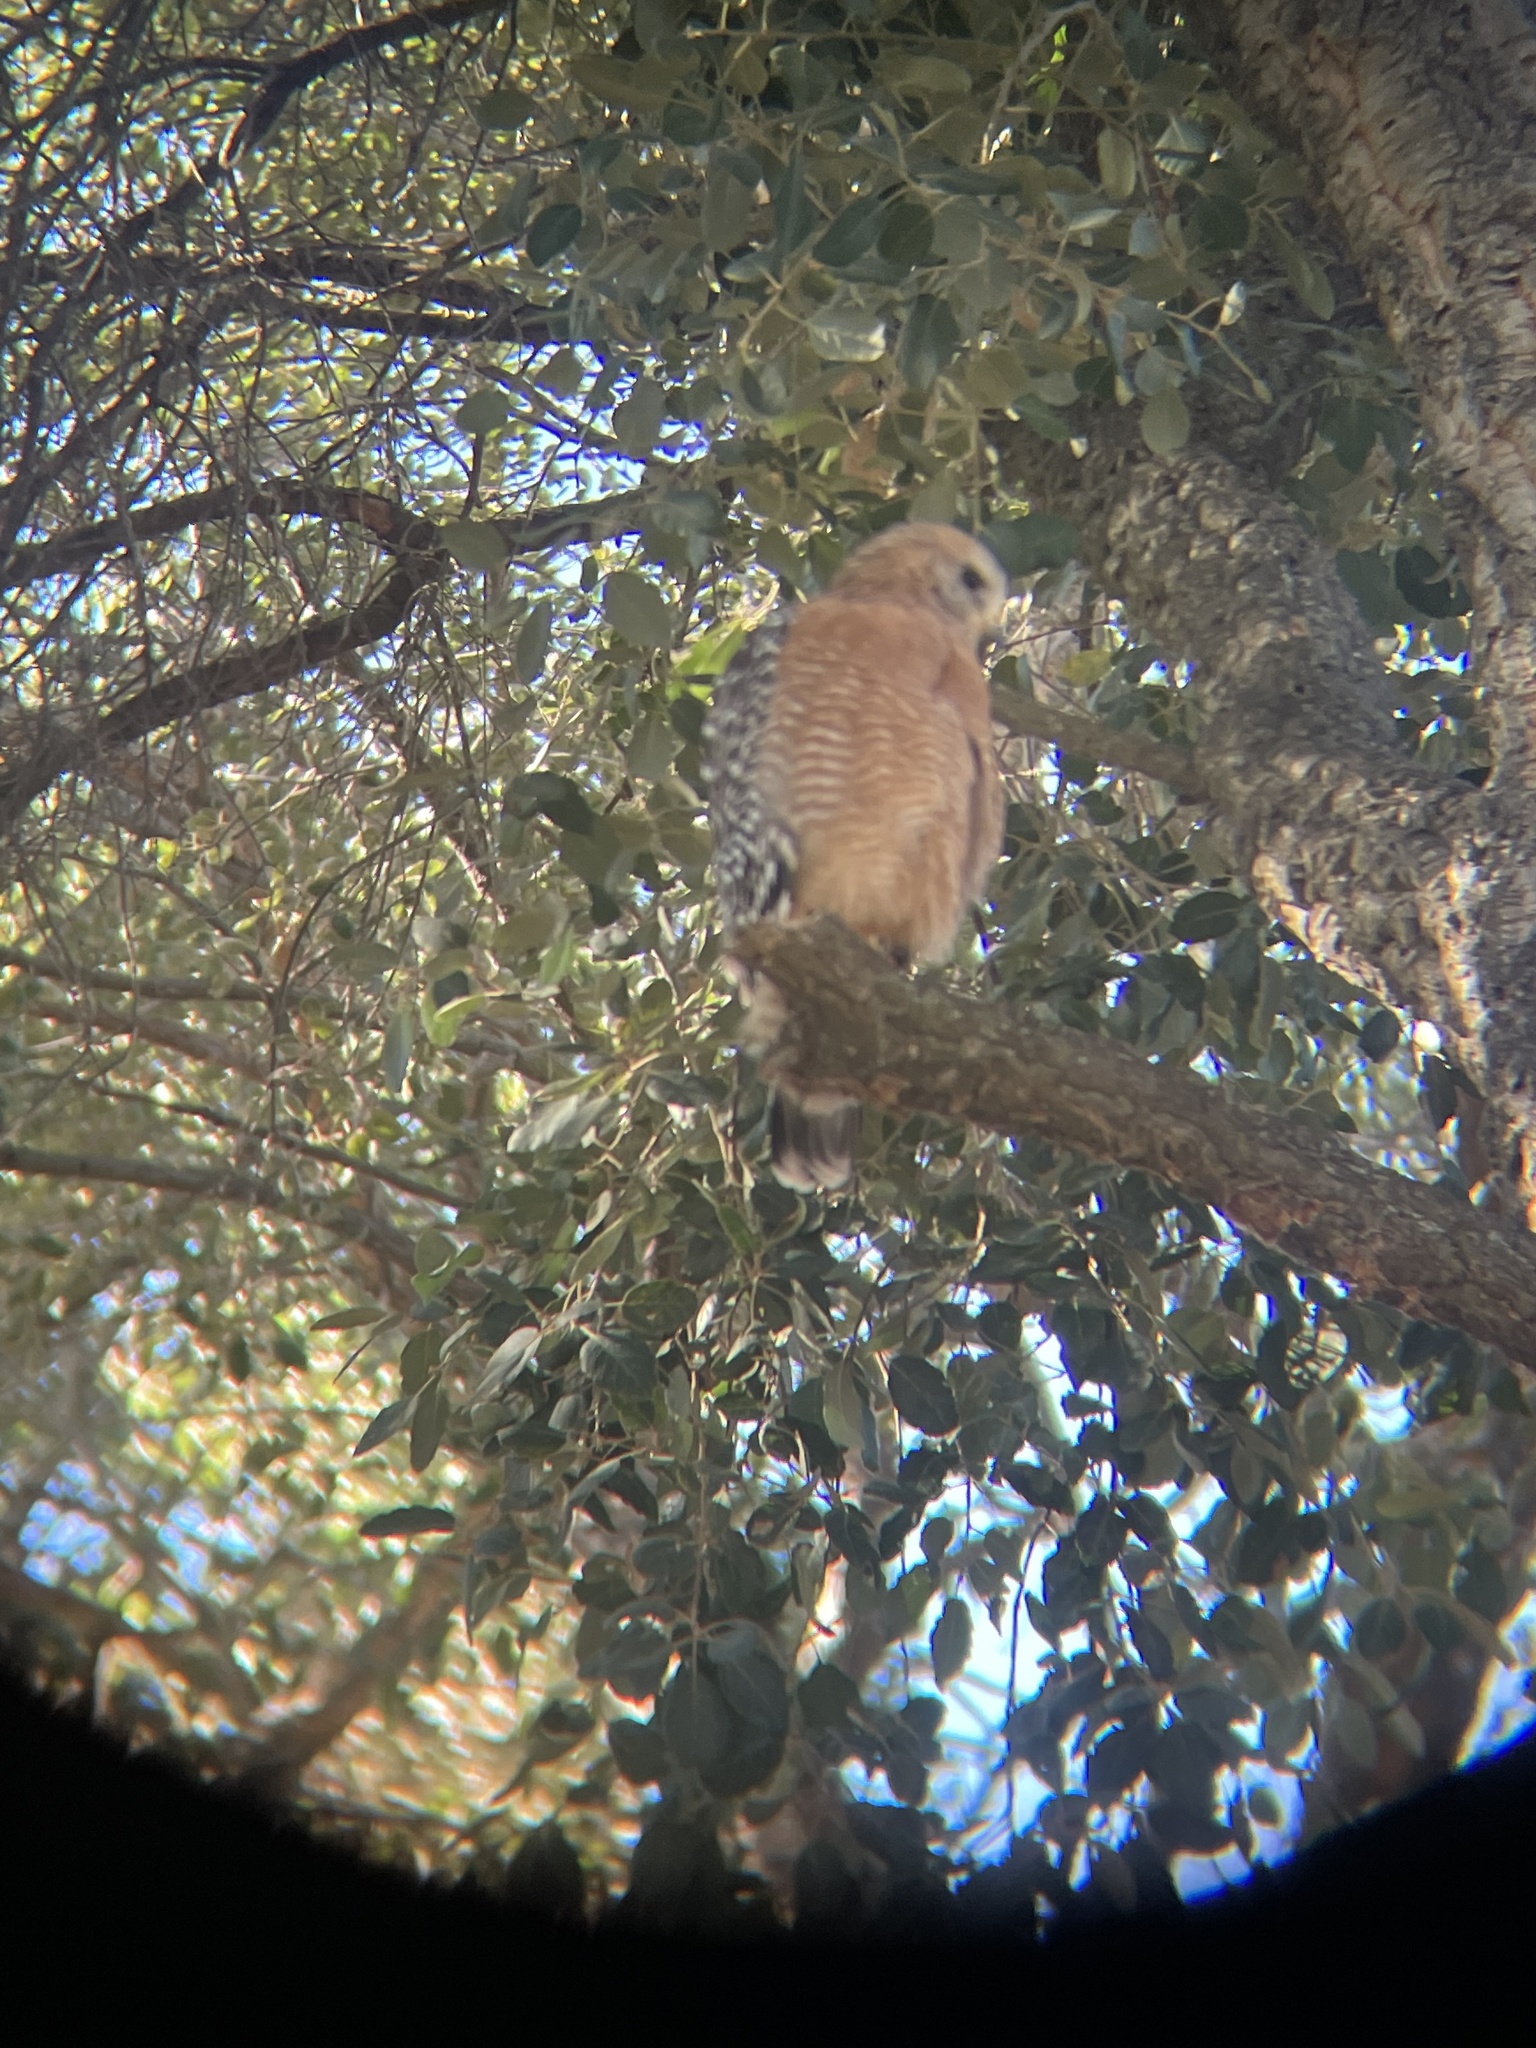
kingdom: Animalia
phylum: Chordata
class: Aves
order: Accipitriformes
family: Accipitridae
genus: Buteo
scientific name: Buteo lineatus
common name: Red-shouldered hawk
